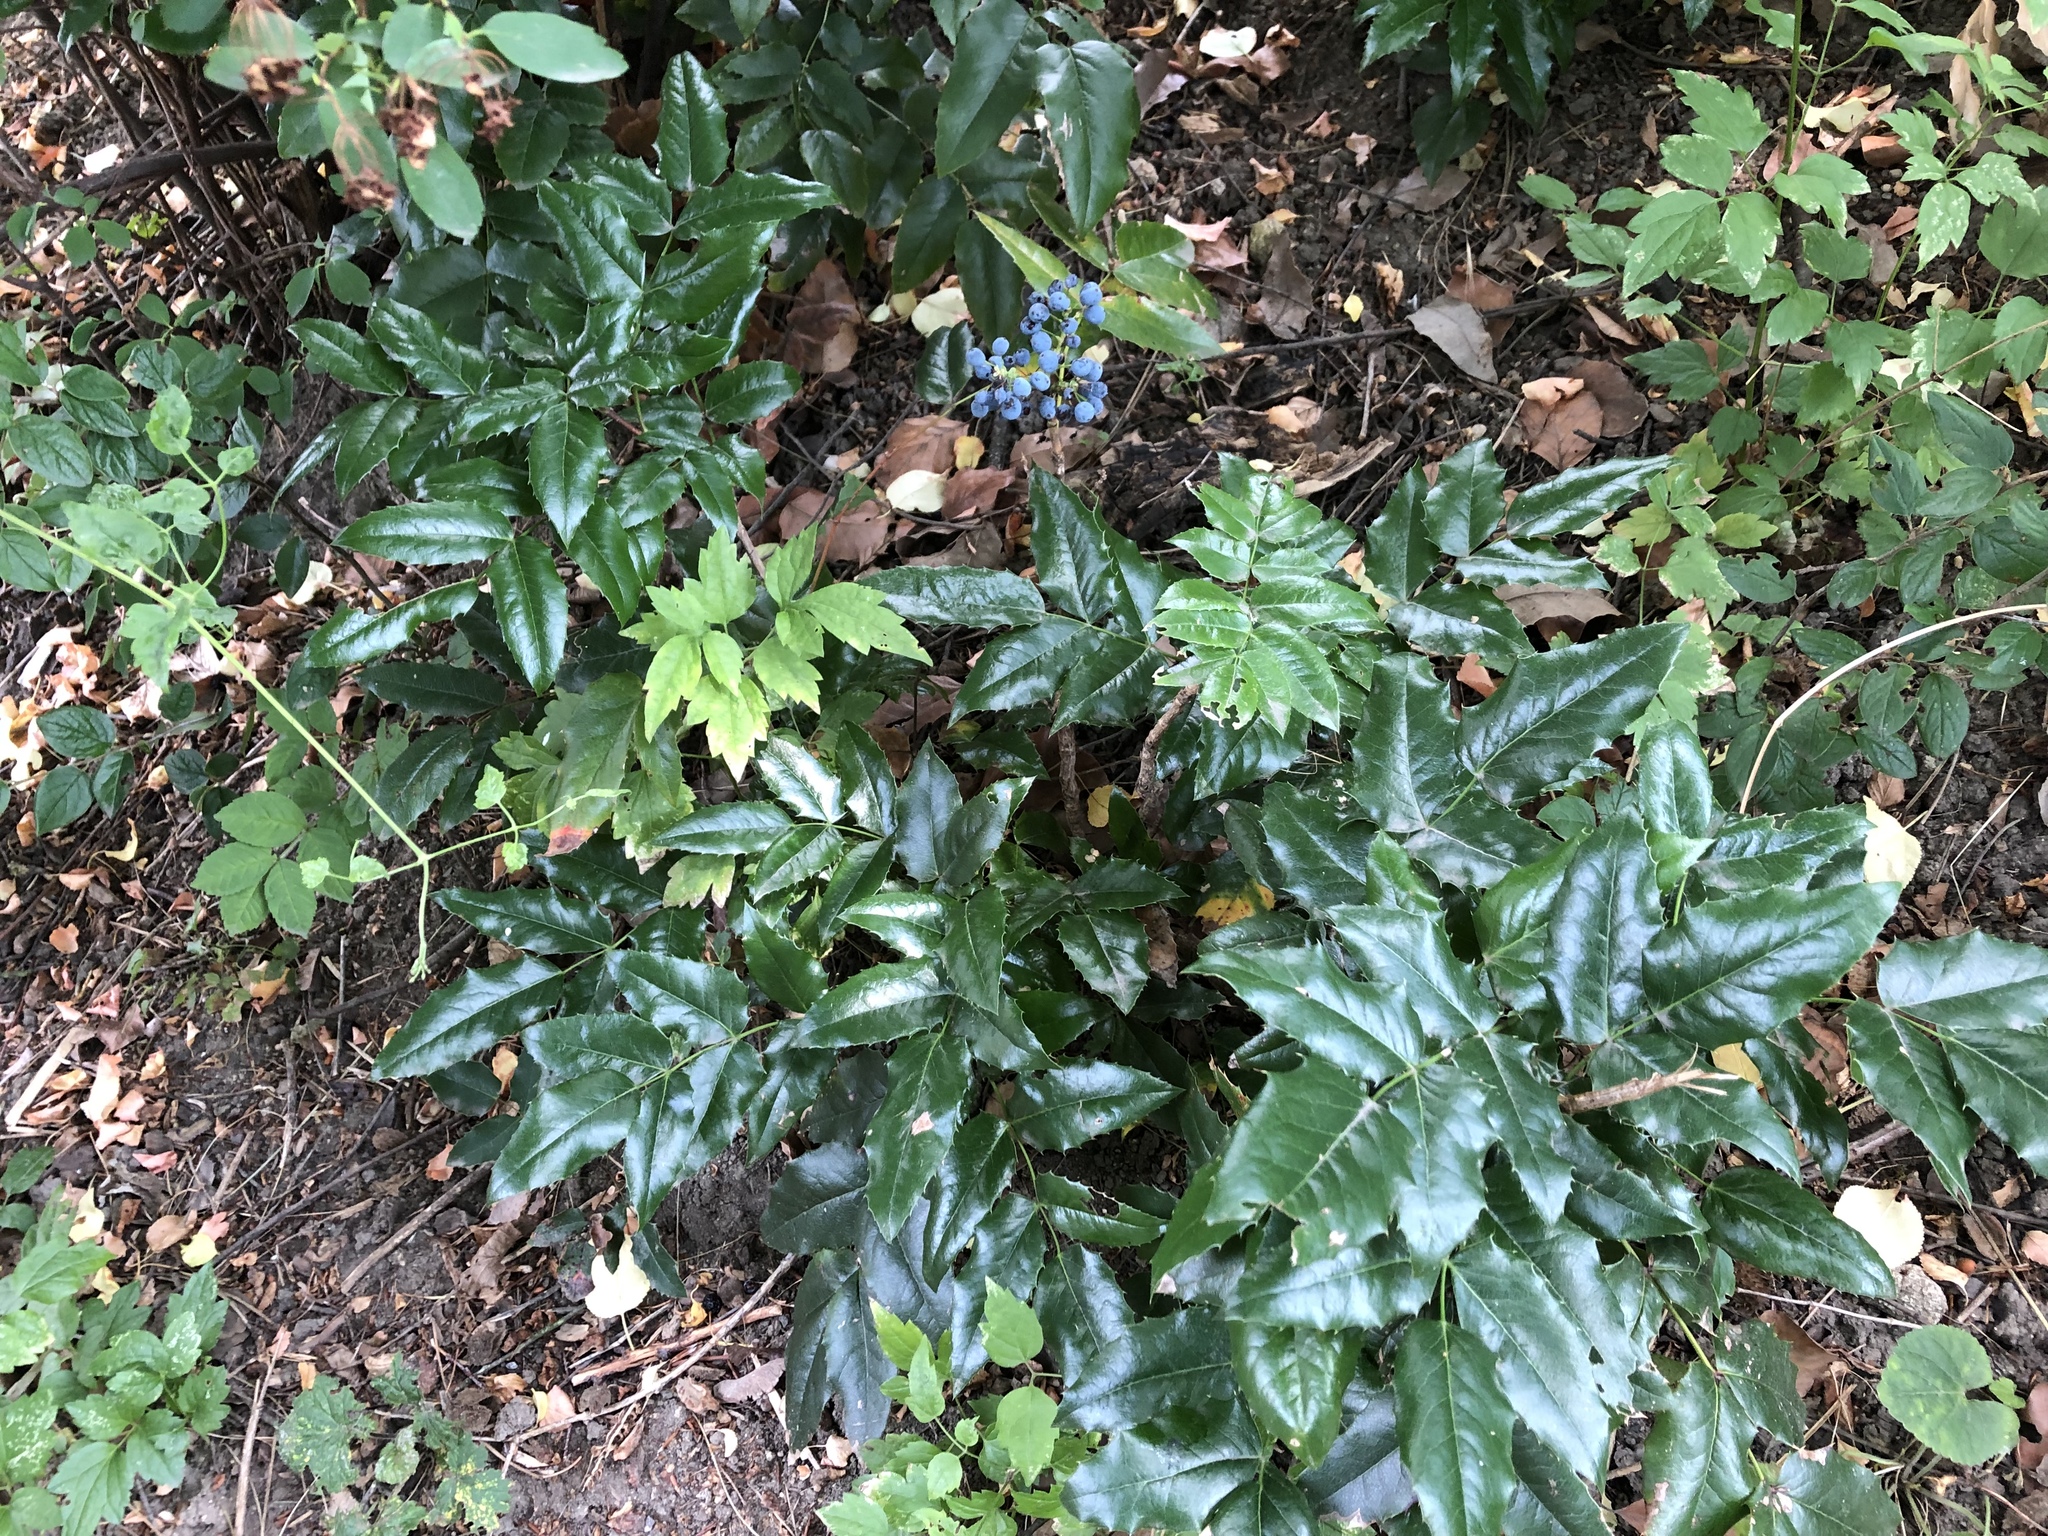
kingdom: Plantae
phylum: Tracheophyta
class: Magnoliopsida
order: Ranunculales
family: Berberidaceae
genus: Mahonia
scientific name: Mahonia aquifolium
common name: Oregon-grape
